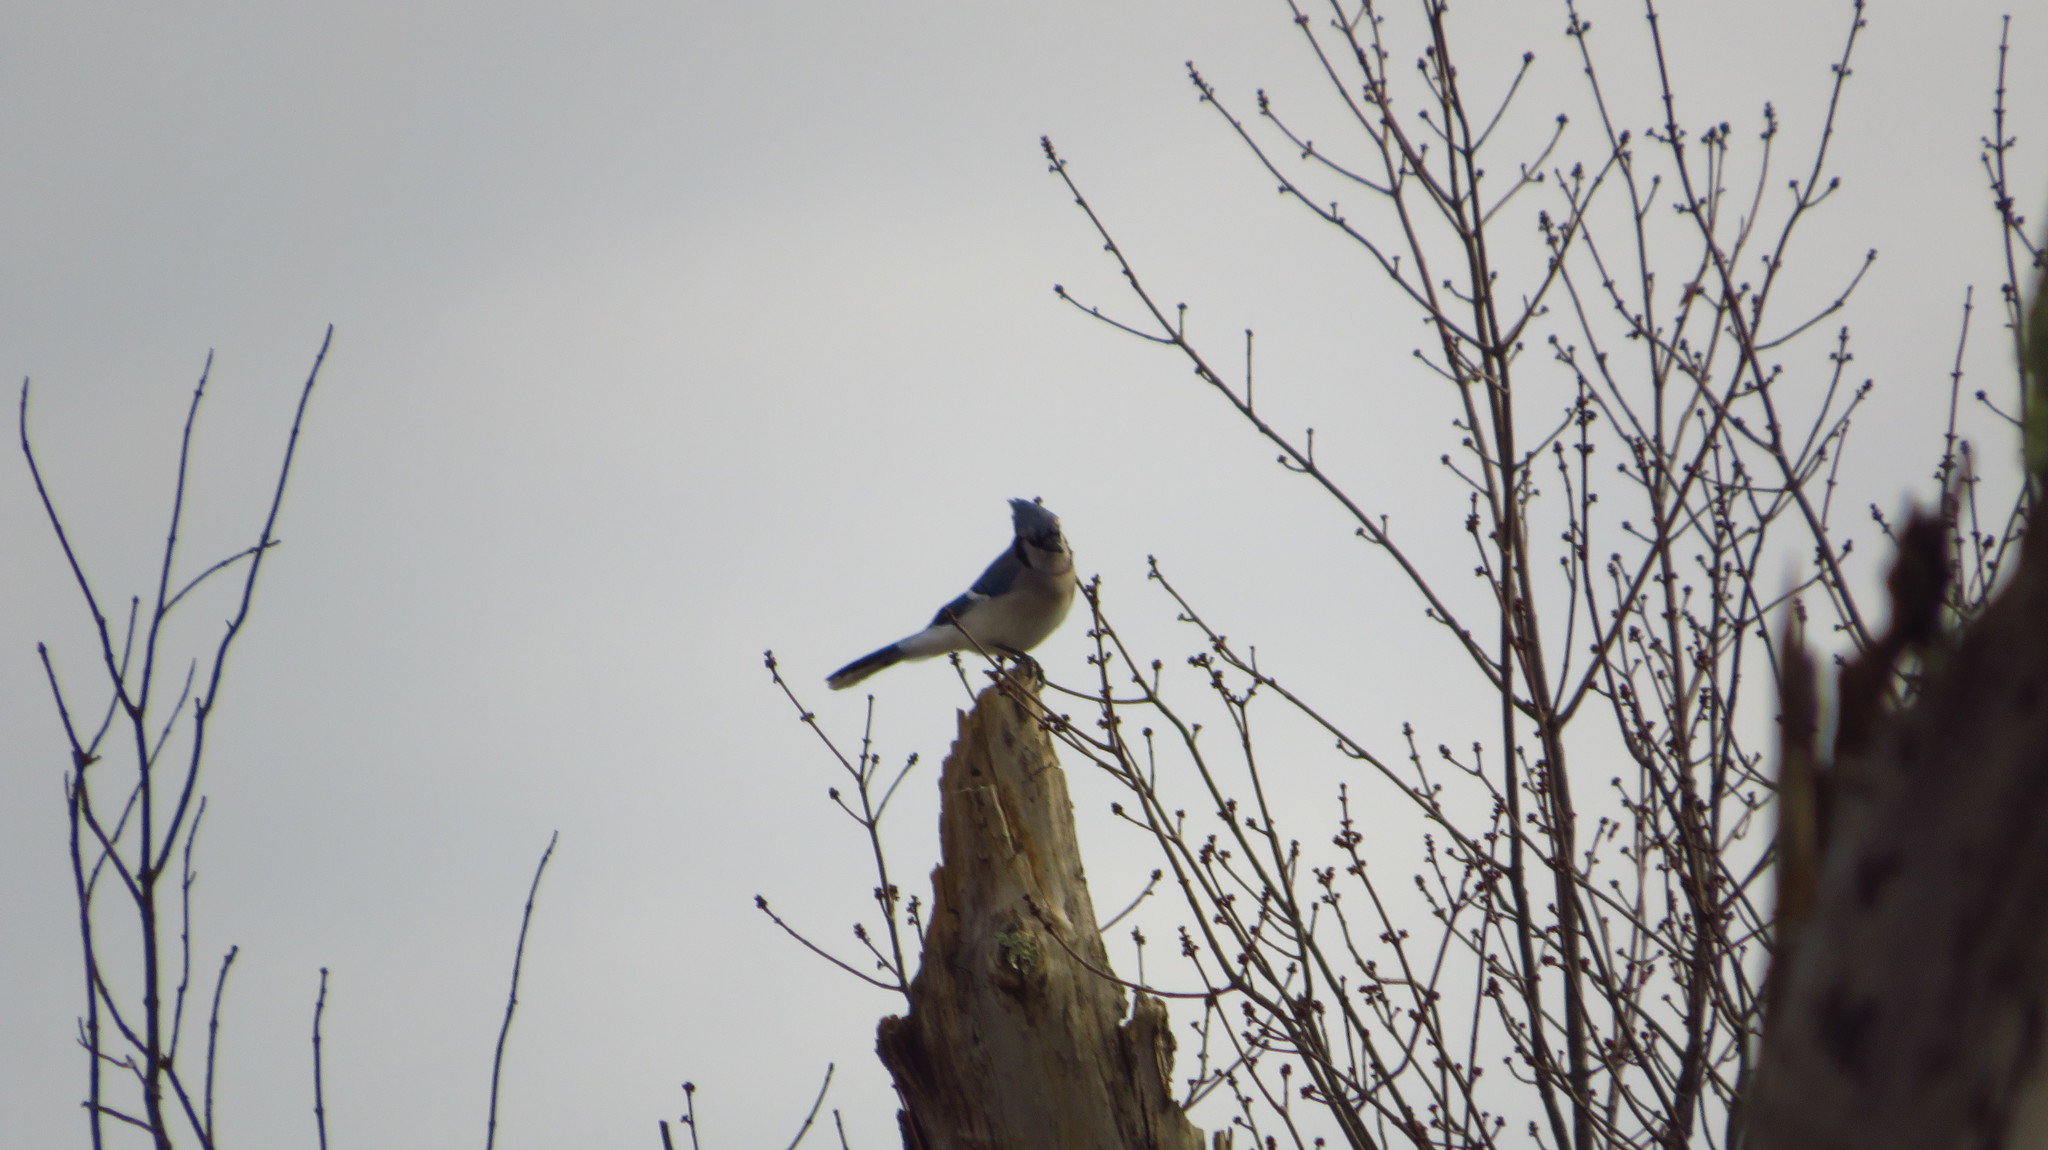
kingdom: Animalia
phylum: Chordata
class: Aves
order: Passeriformes
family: Corvidae
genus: Cyanocitta
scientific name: Cyanocitta cristata
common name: Blue jay
